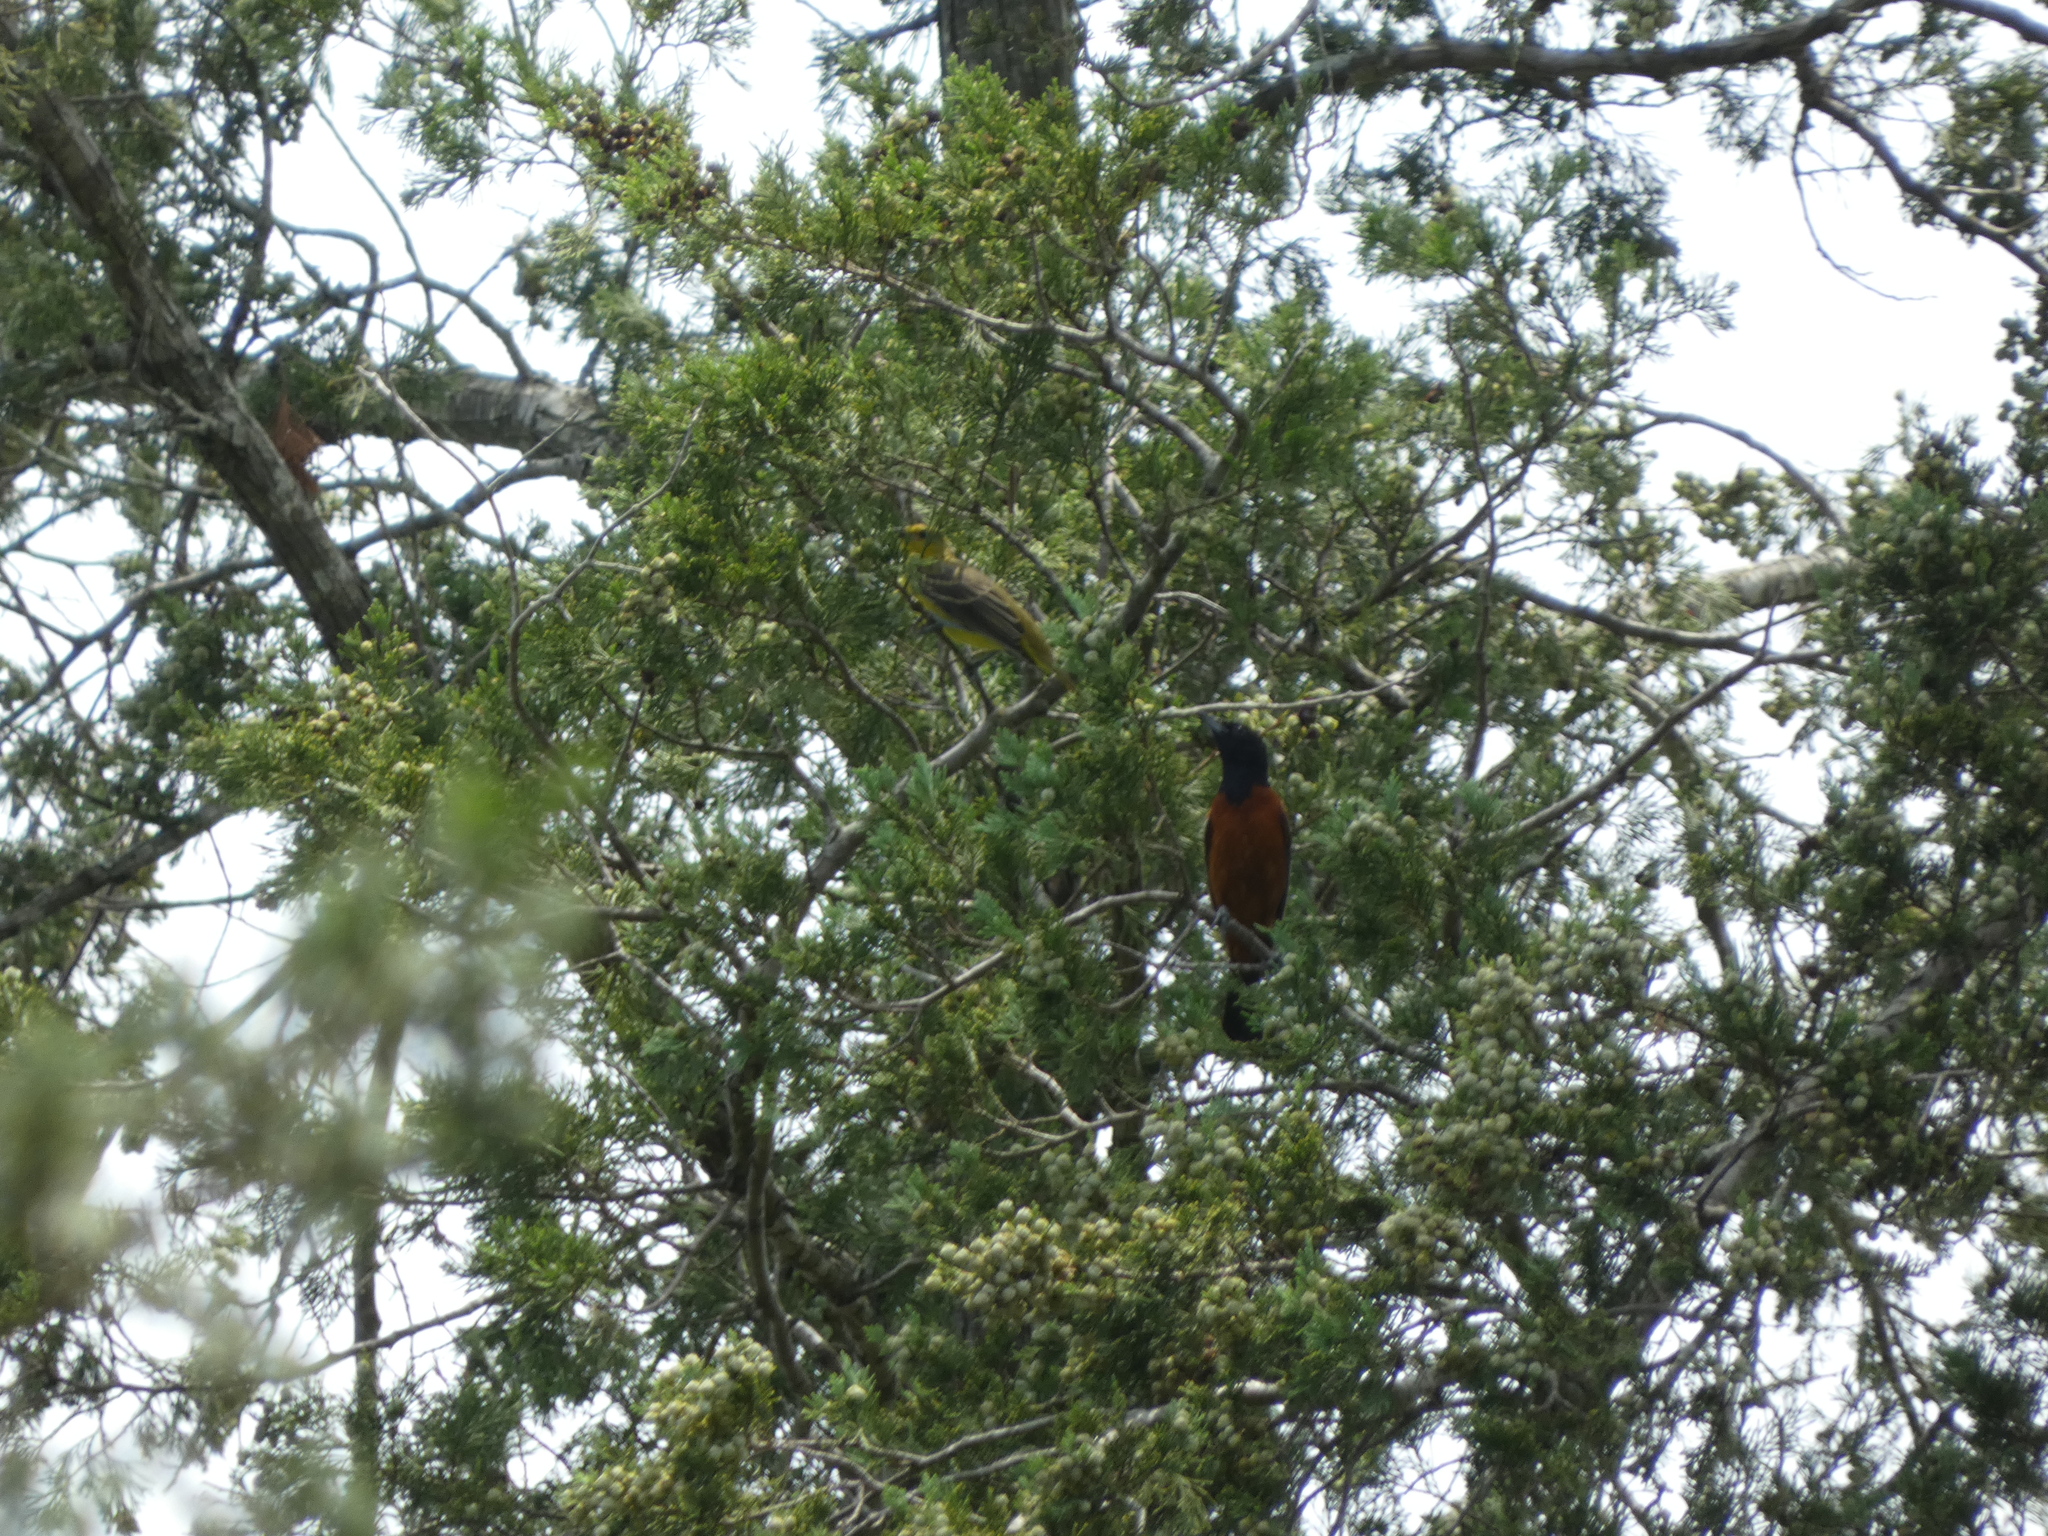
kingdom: Animalia
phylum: Chordata
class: Aves
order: Passeriformes
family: Icteridae
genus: Icterus
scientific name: Icterus spurius
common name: Orchard oriole
